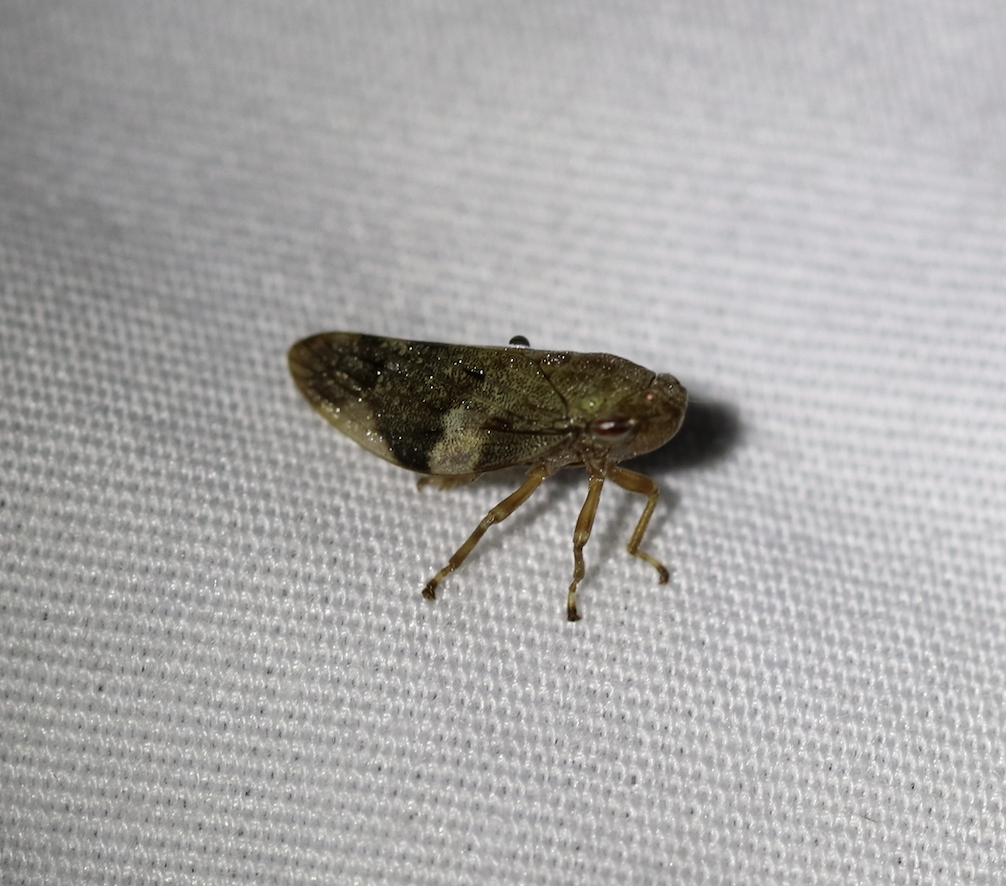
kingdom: Animalia
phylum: Arthropoda
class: Insecta
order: Hemiptera
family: Aphrophoridae
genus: Aphrophora
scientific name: Aphrophora alni
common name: European alder spittlebug
